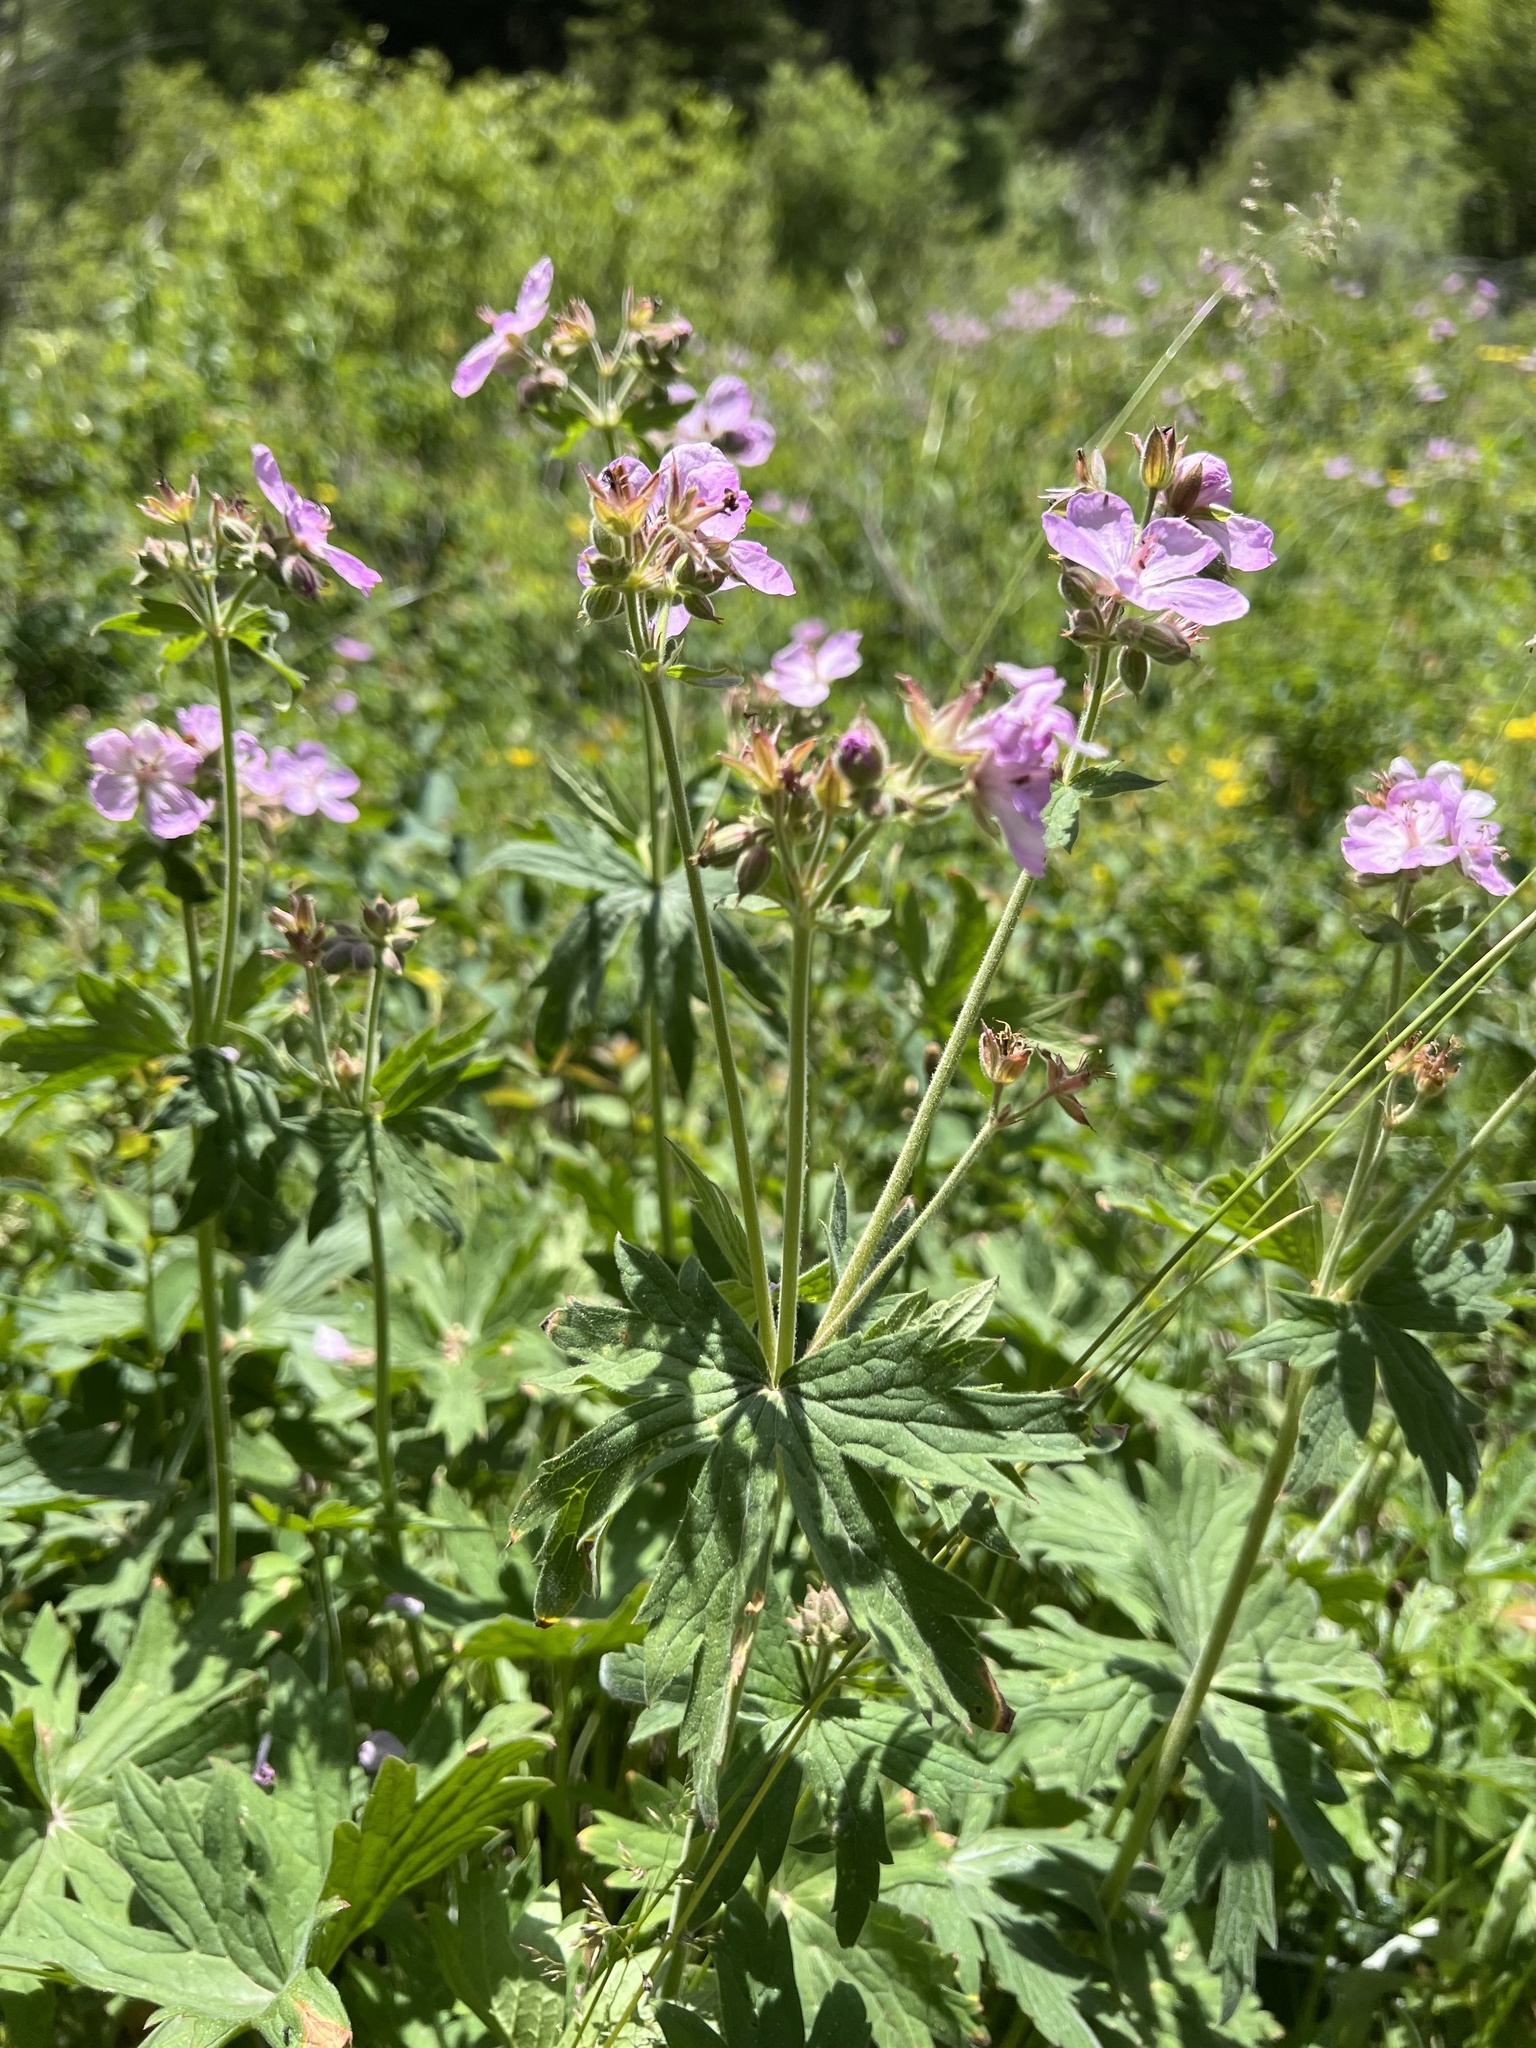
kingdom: Plantae
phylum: Tracheophyta
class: Magnoliopsida
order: Geraniales
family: Geraniaceae
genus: Geranium
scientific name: Geranium viscosissimum
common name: Purple geranium
